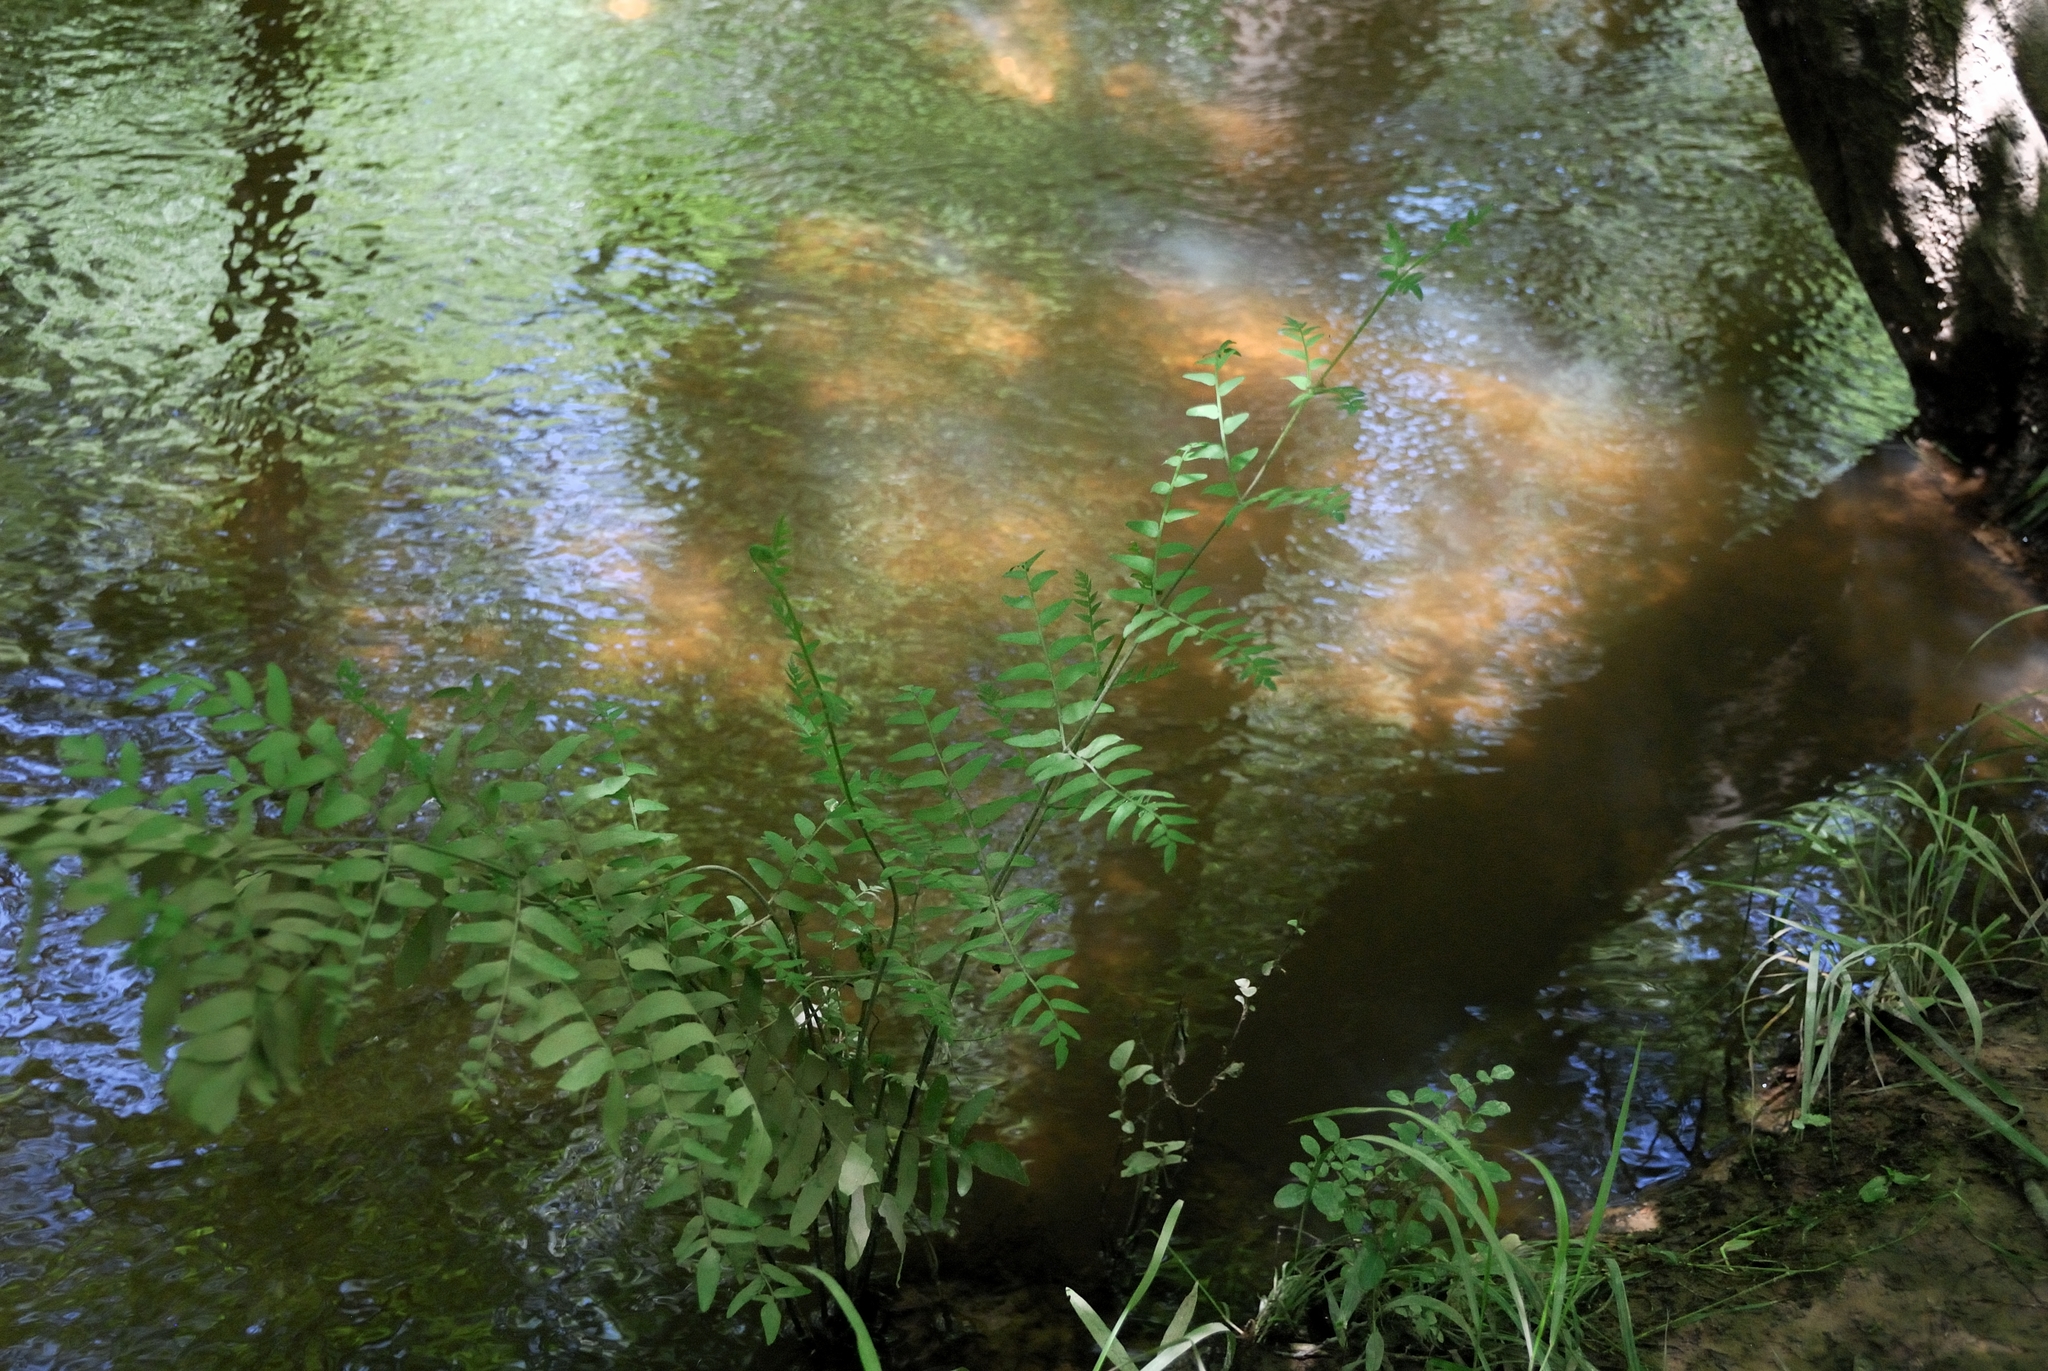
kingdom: Plantae
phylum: Tracheophyta
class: Polypodiopsida
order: Osmundales
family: Osmundaceae
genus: Osmunda
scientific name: Osmunda spectabilis
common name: American royal fern
